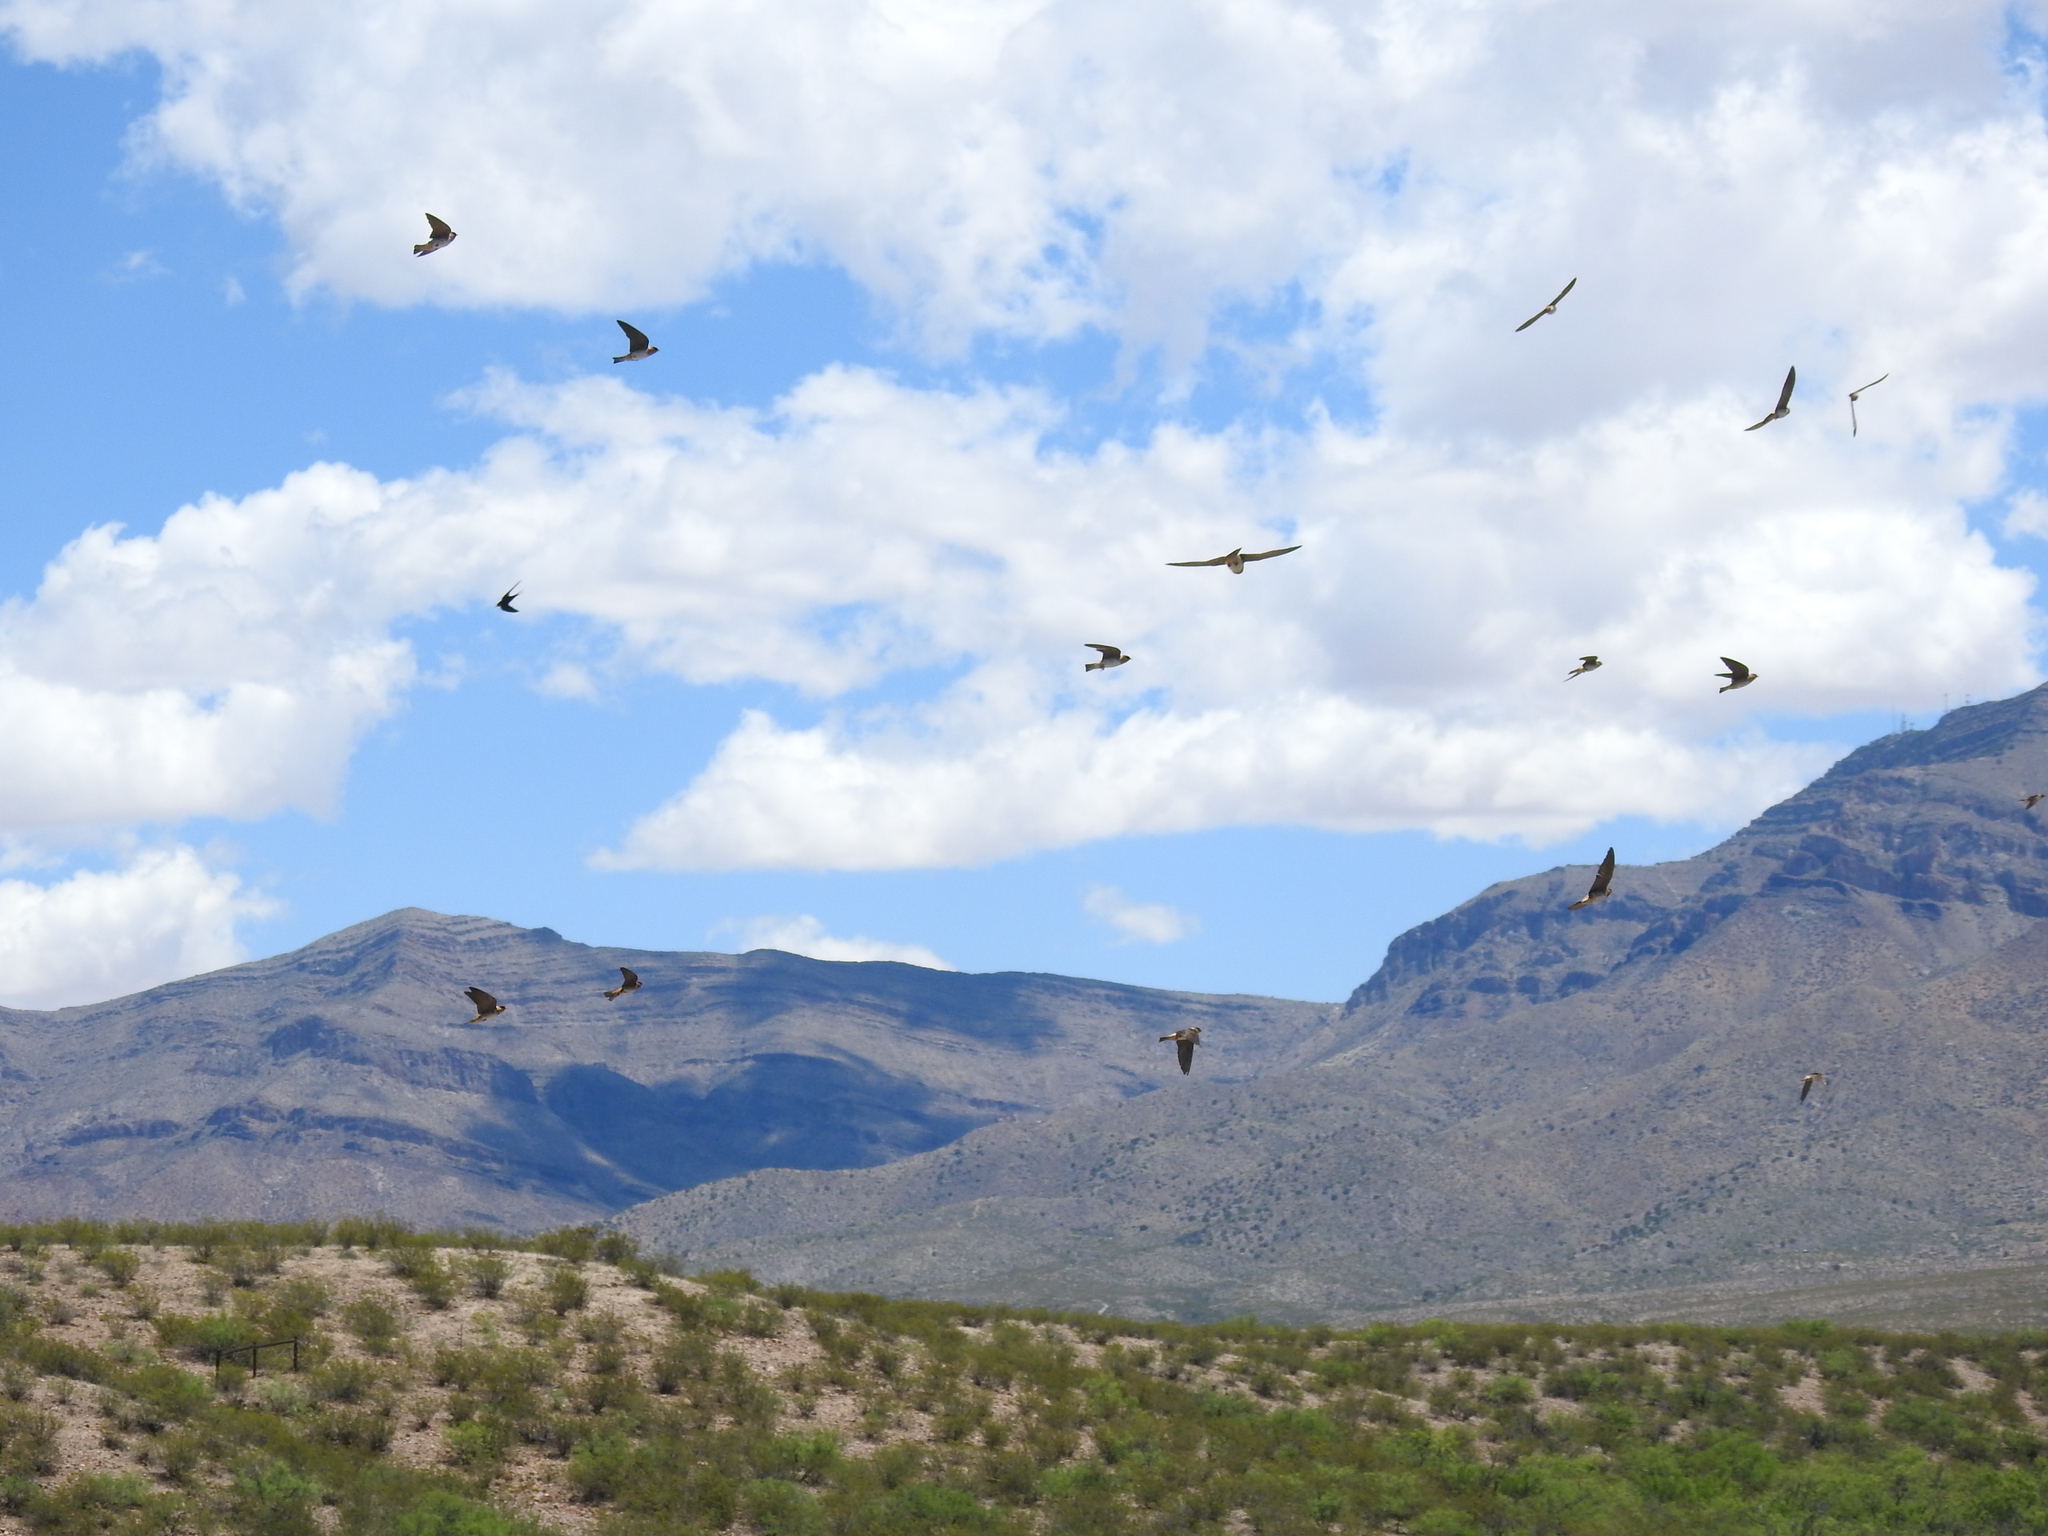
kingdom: Animalia
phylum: Chordata
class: Aves
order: Passeriformes
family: Hirundinidae
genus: Petrochelidon
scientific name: Petrochelidon fulva
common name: Cave swallow
